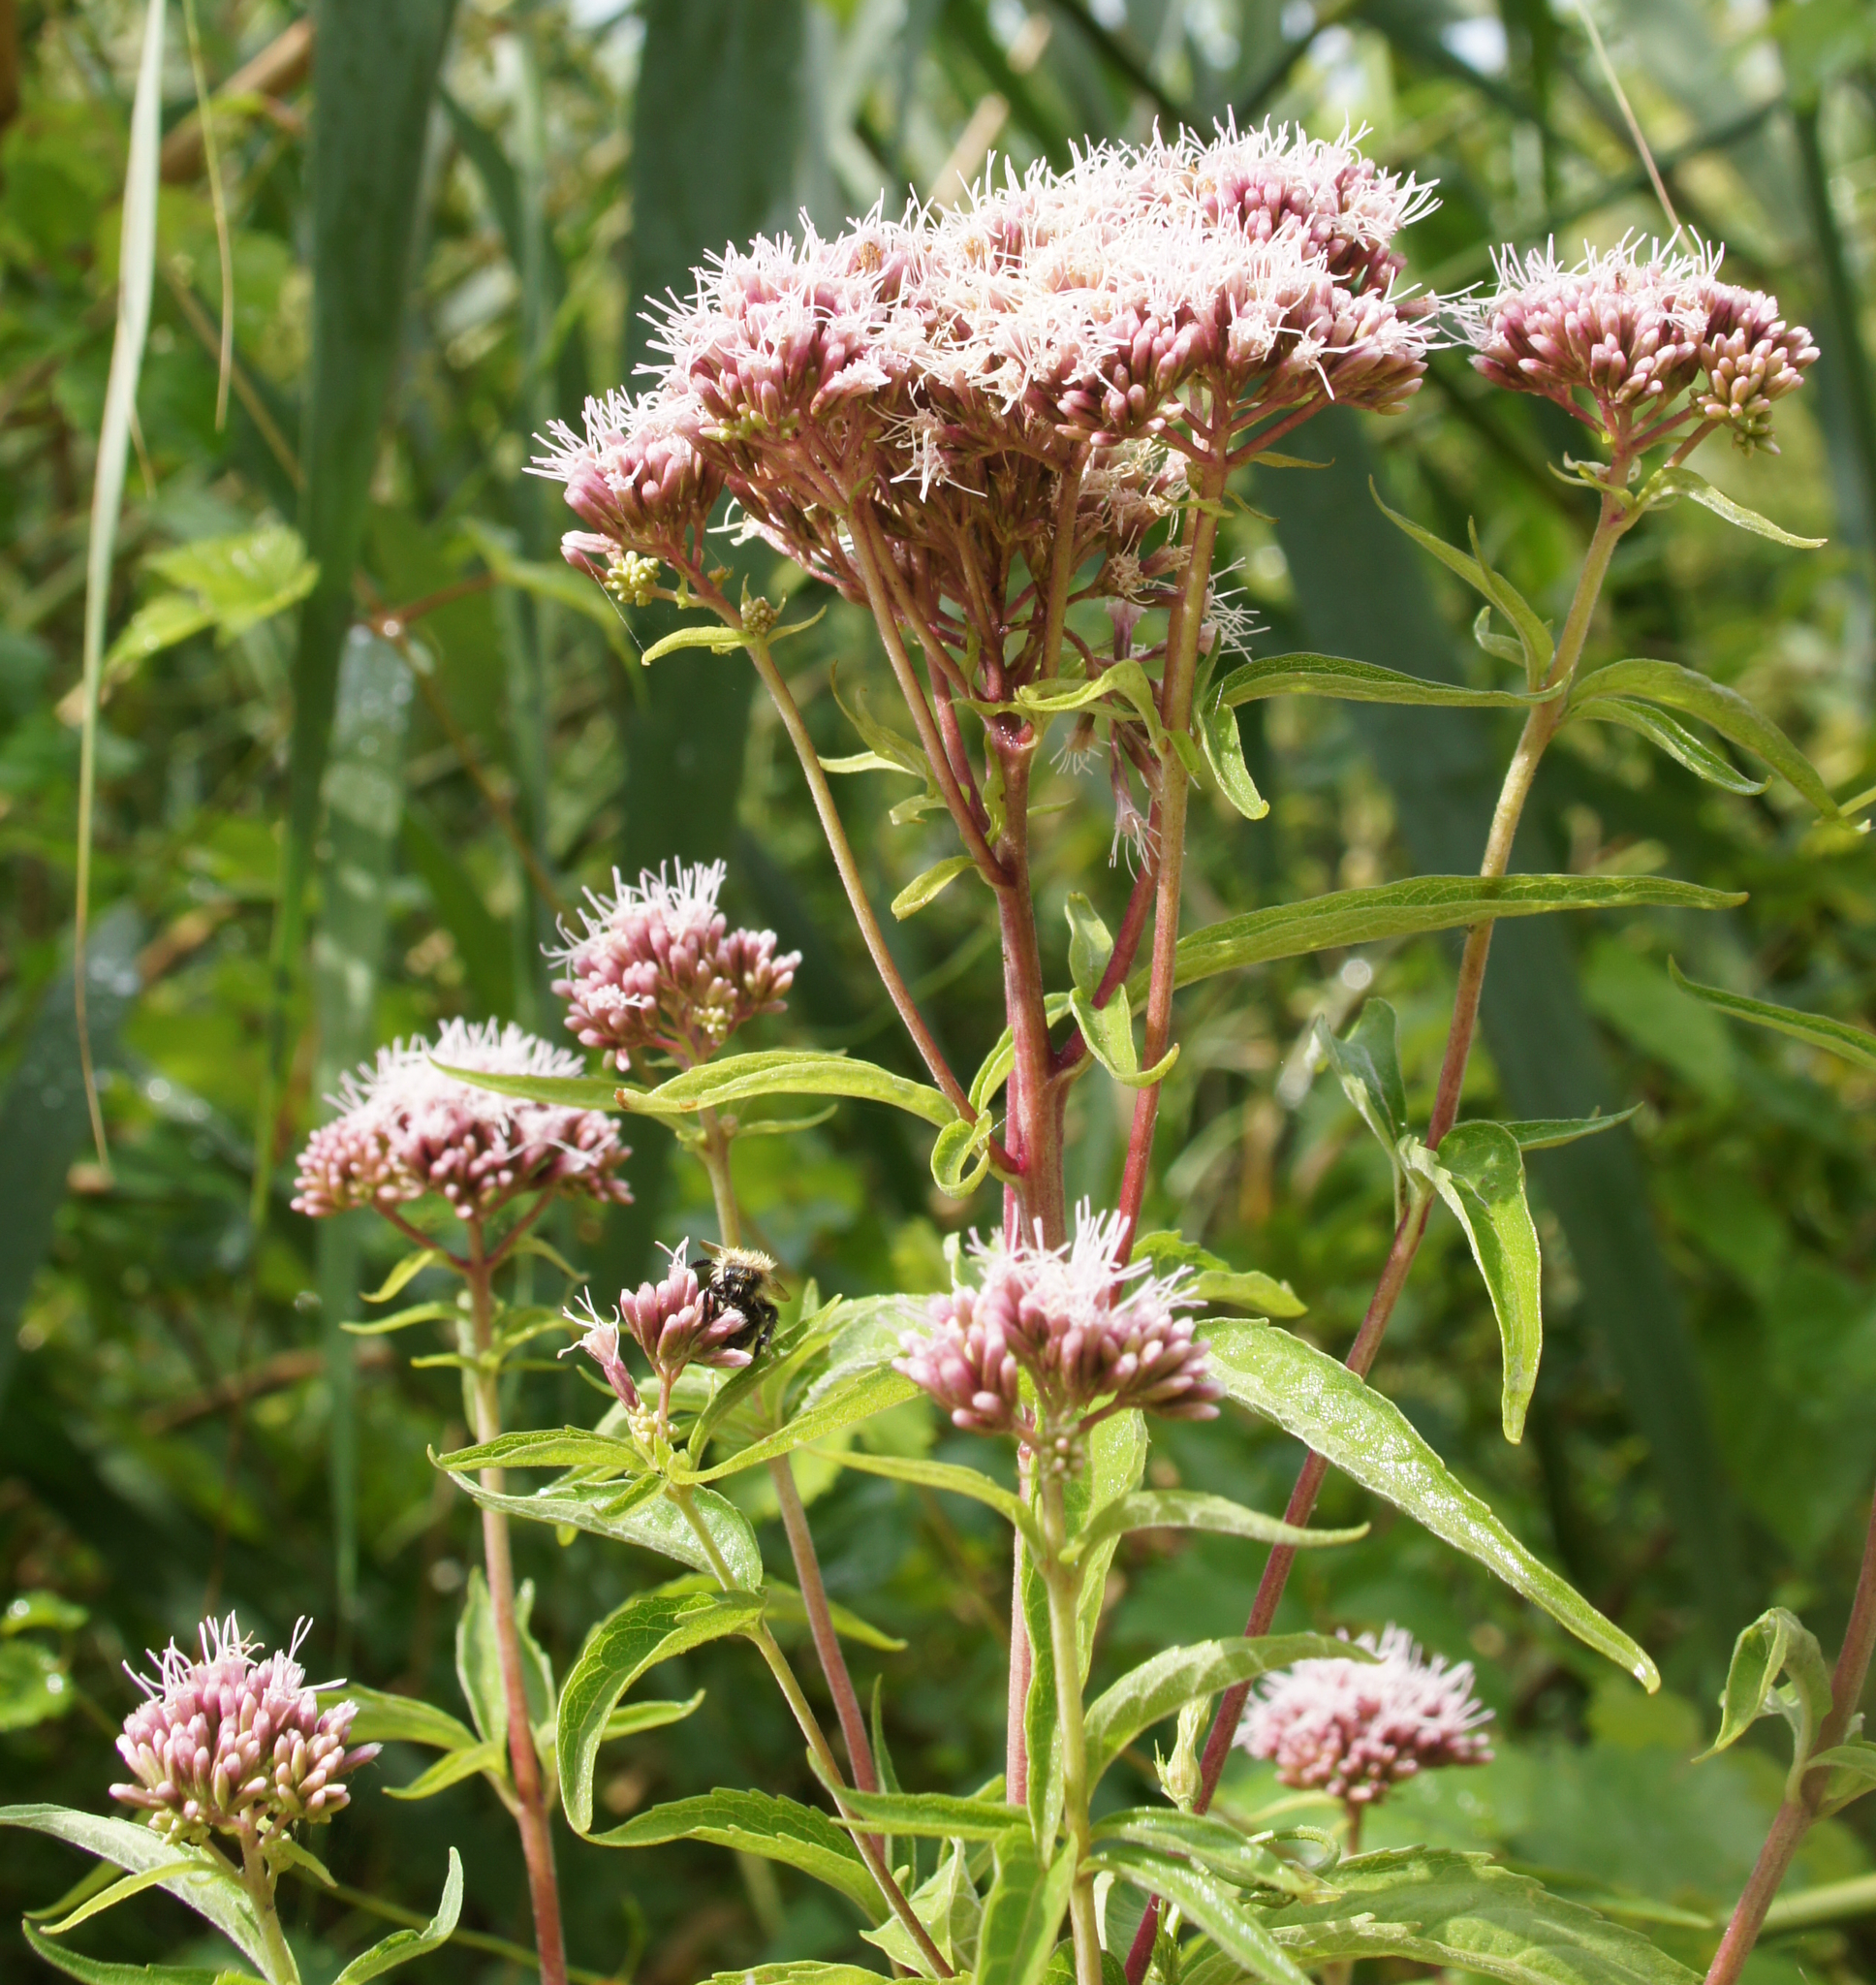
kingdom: Plantae
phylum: Tracheophyta
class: Magnoliopsida
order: Asterales
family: Asteraceae
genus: Eupatorium
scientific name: Eupatorium cannabinum
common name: Hemp-agrimony
